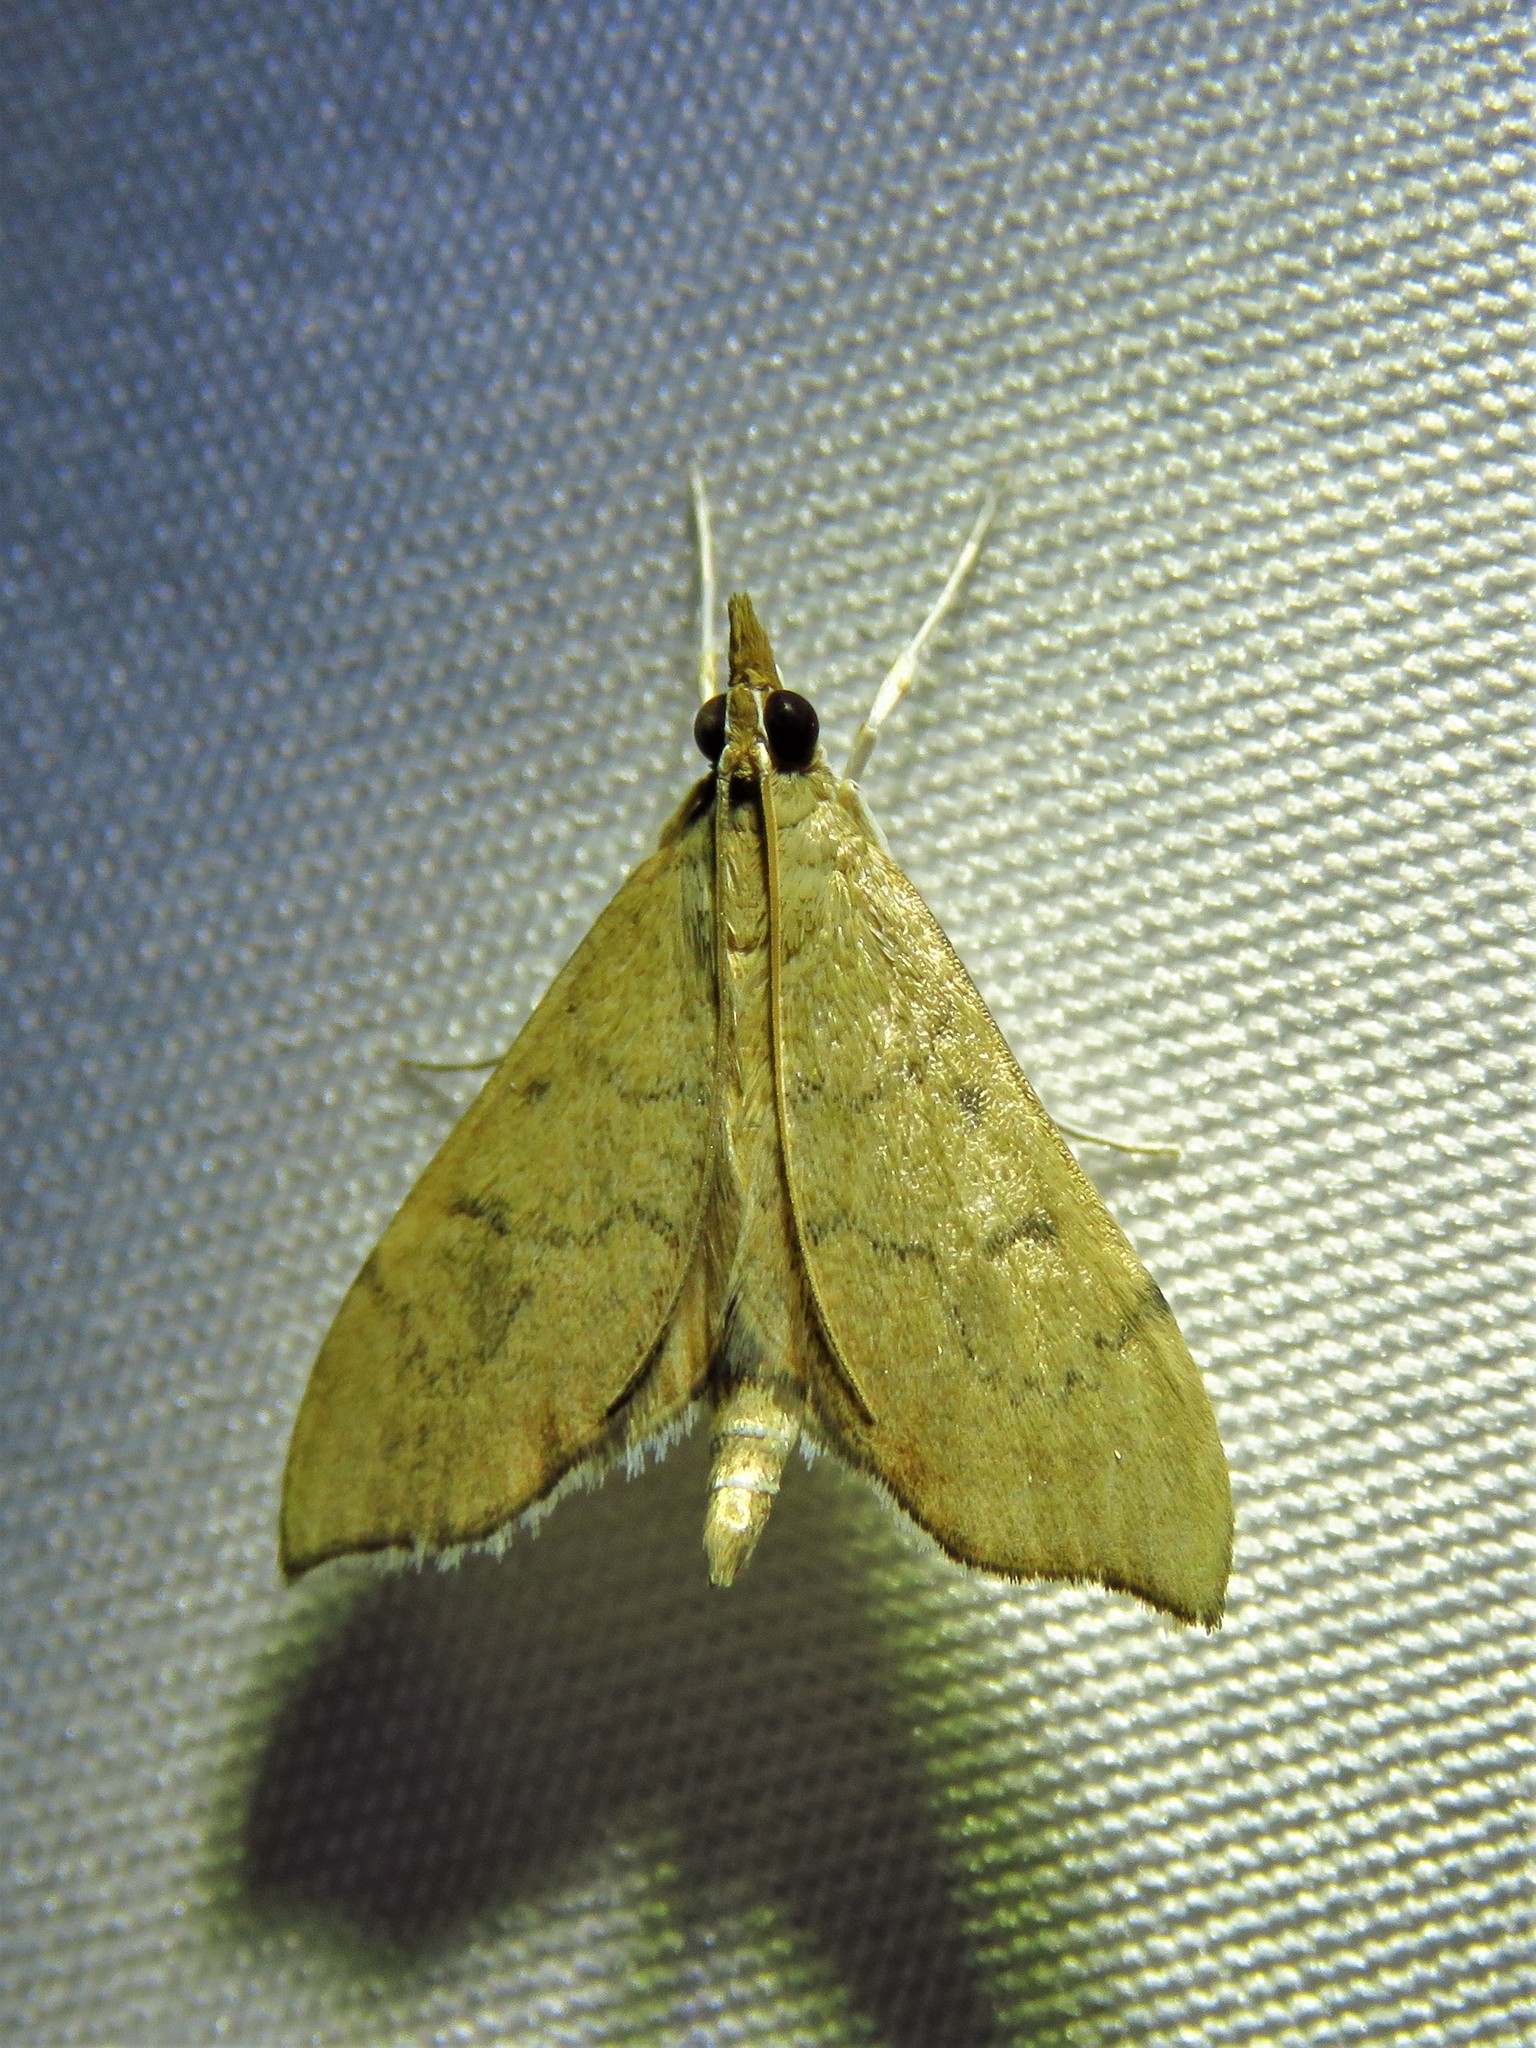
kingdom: Animalia
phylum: Arthropoda
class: Insecta
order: Lepidoptera
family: Crambidae
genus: Sericoplaga
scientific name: Sericoplaga externalis
